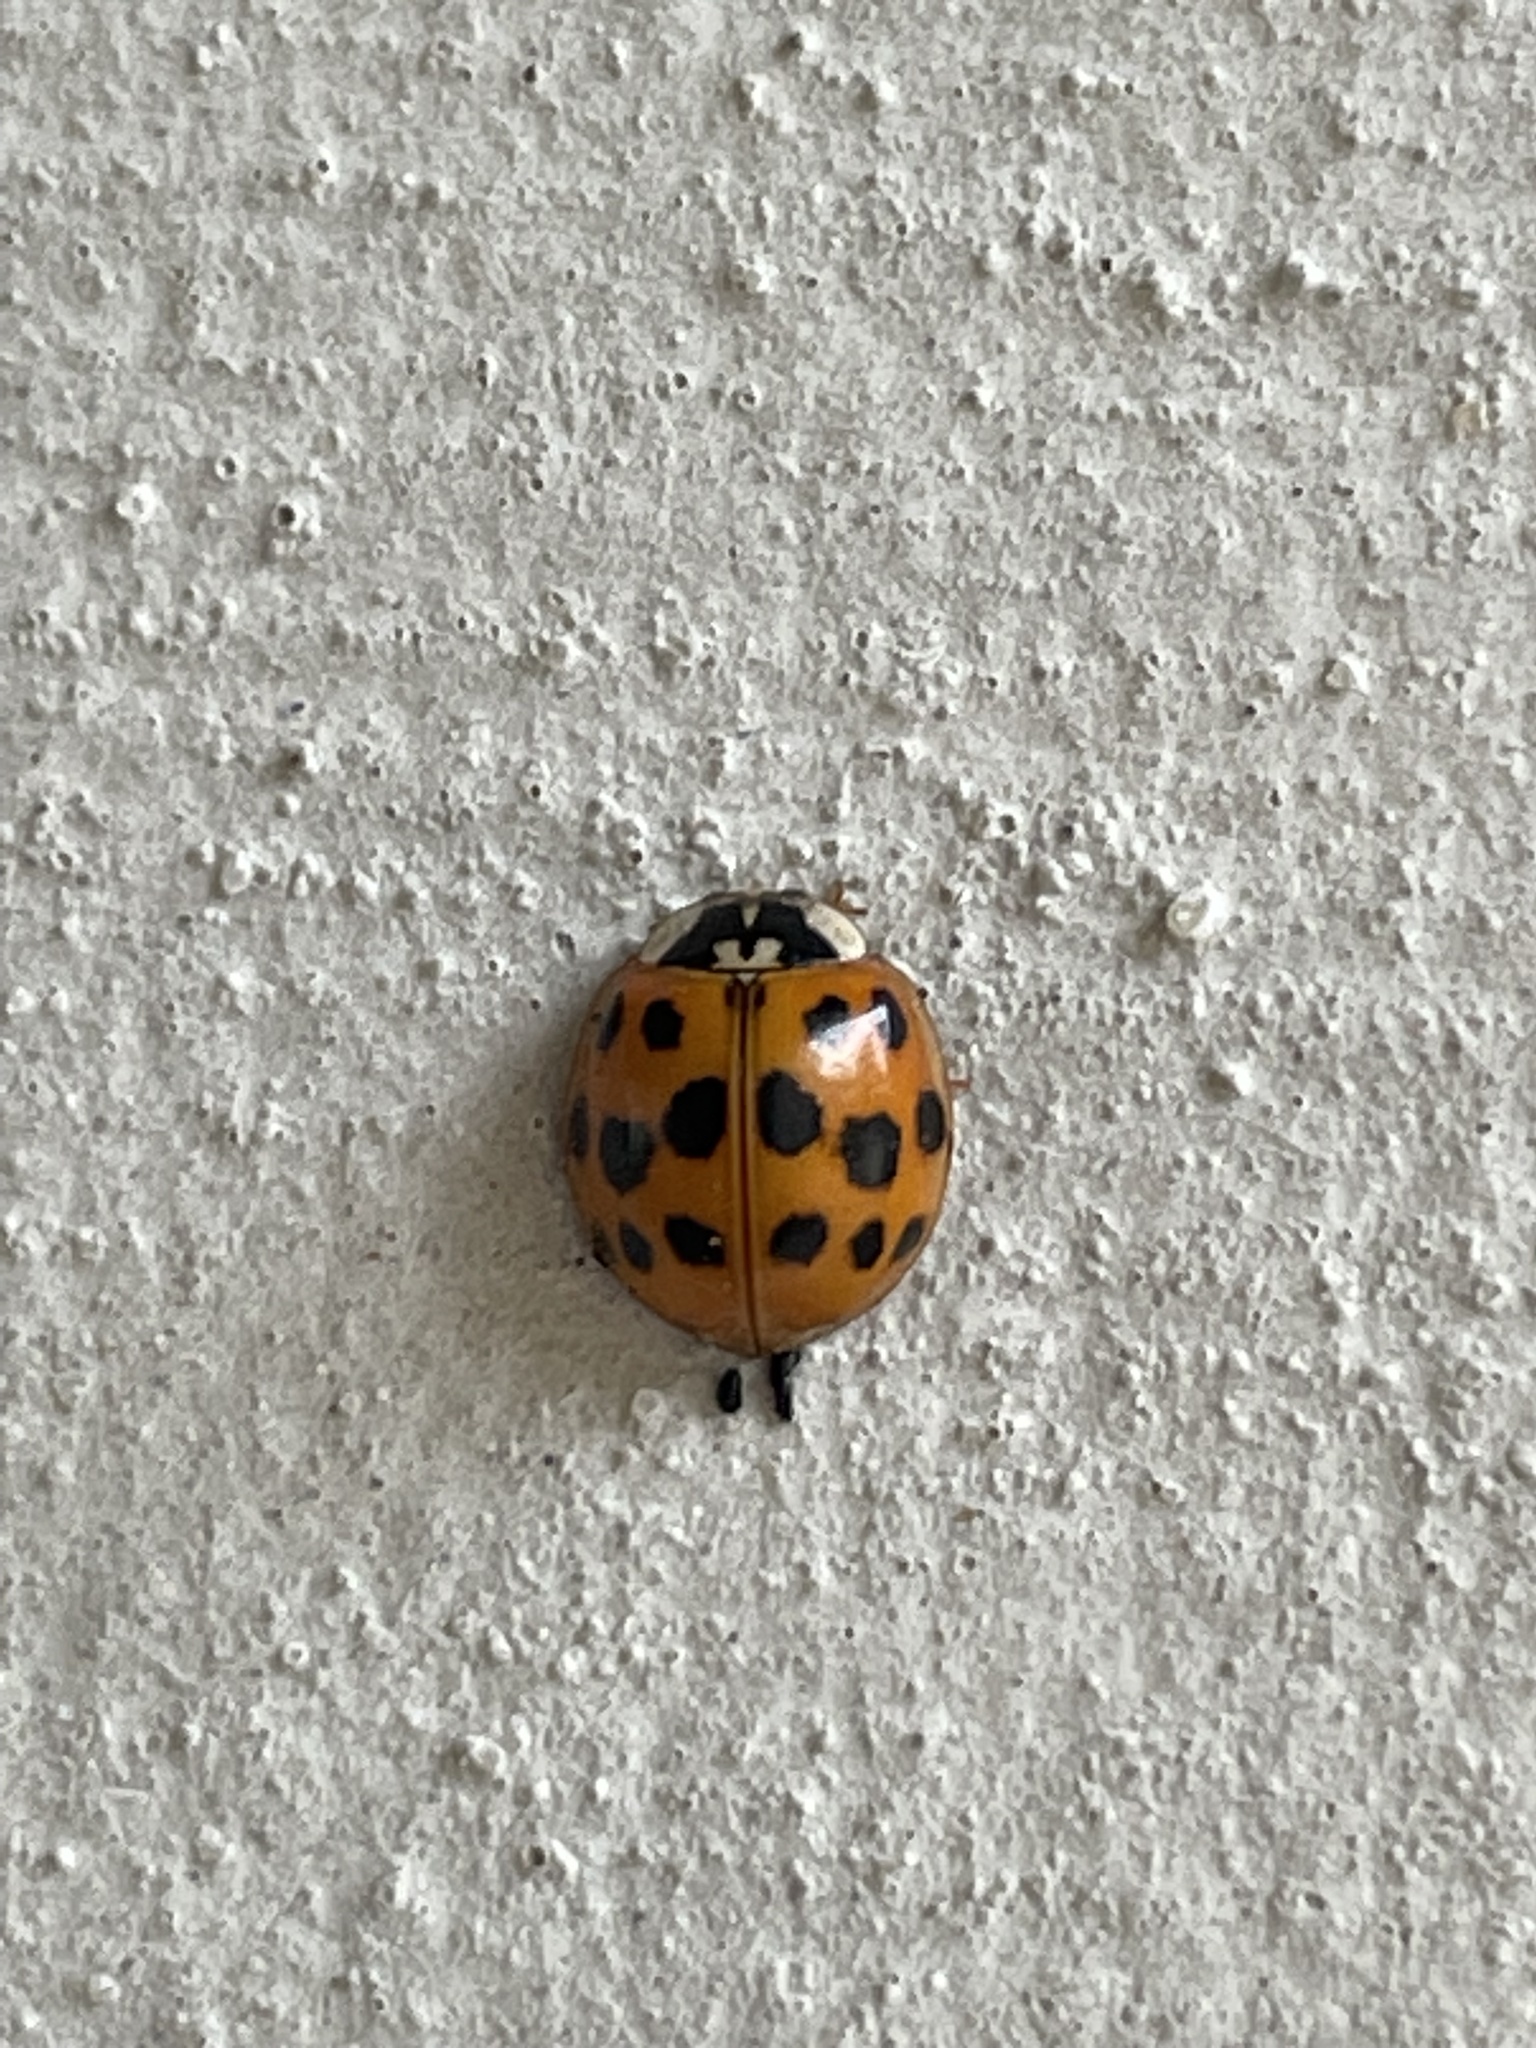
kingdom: Animalia
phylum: Arthropoda
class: Insecta
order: Coleoptera
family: Coccinellidae
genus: Harmonia
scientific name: Harmonia axyridis
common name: Harlequin ladybird
